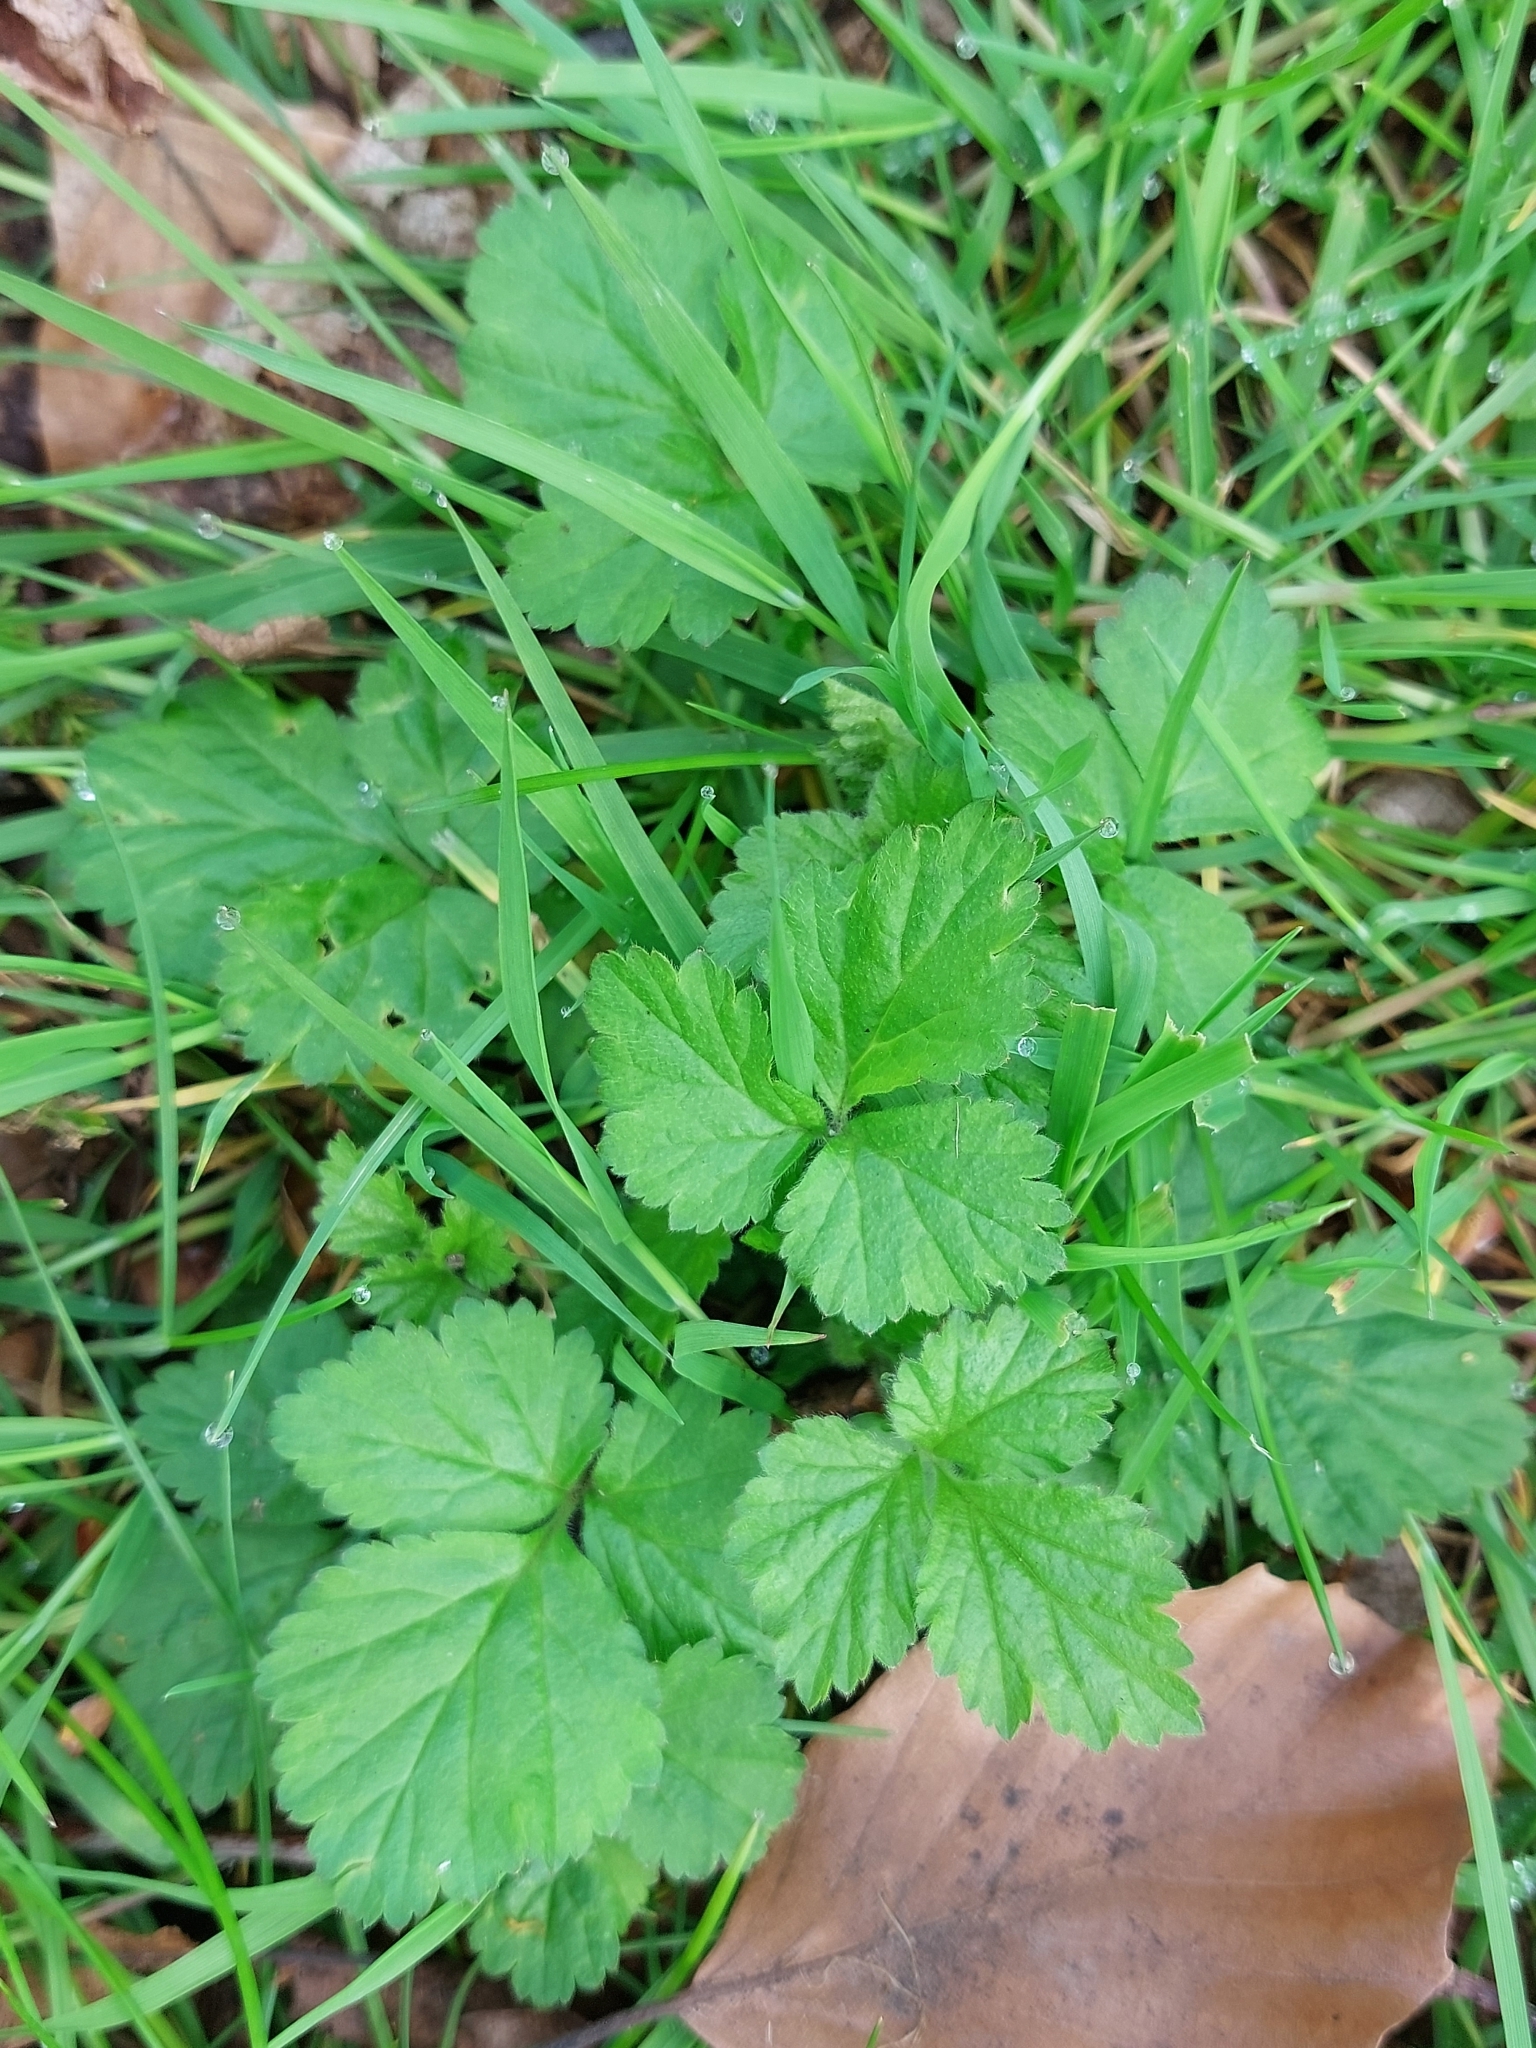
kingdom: Plantae
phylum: Tracheophyta
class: Magnoliopsida
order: Rosales
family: Rosaceae
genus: Geum
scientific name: Geum urbanum
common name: Wood avens
